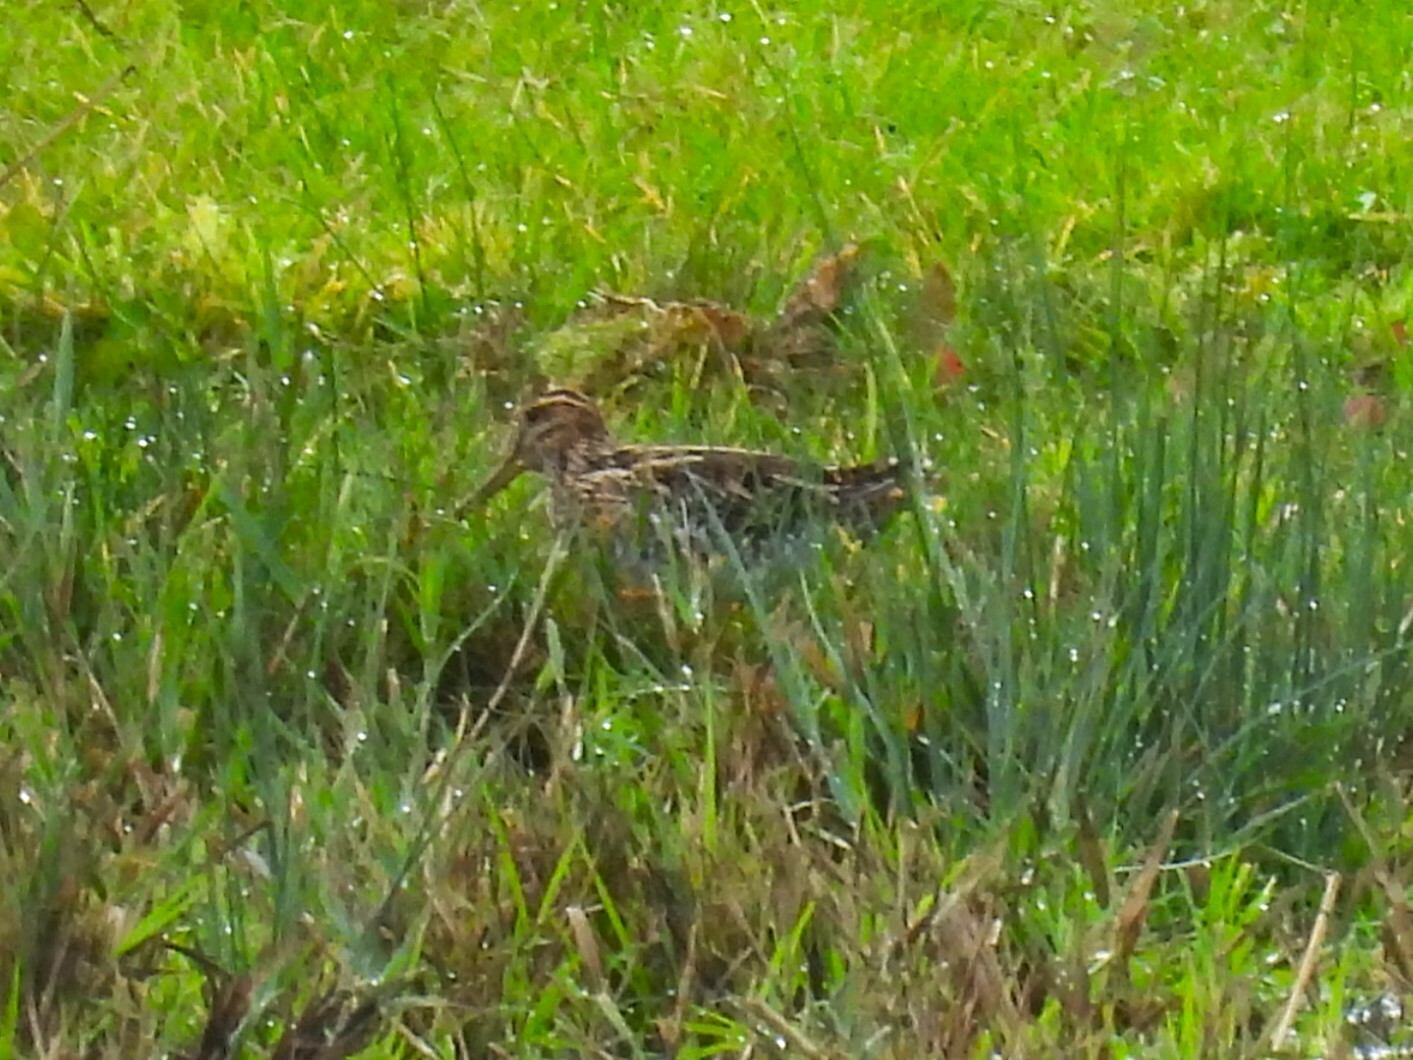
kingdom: Animalia
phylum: Chordata
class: Aves
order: Charadriiformes
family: Scolopacidae
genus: Gallinago
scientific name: Gallinago gallinago
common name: Common snipe
